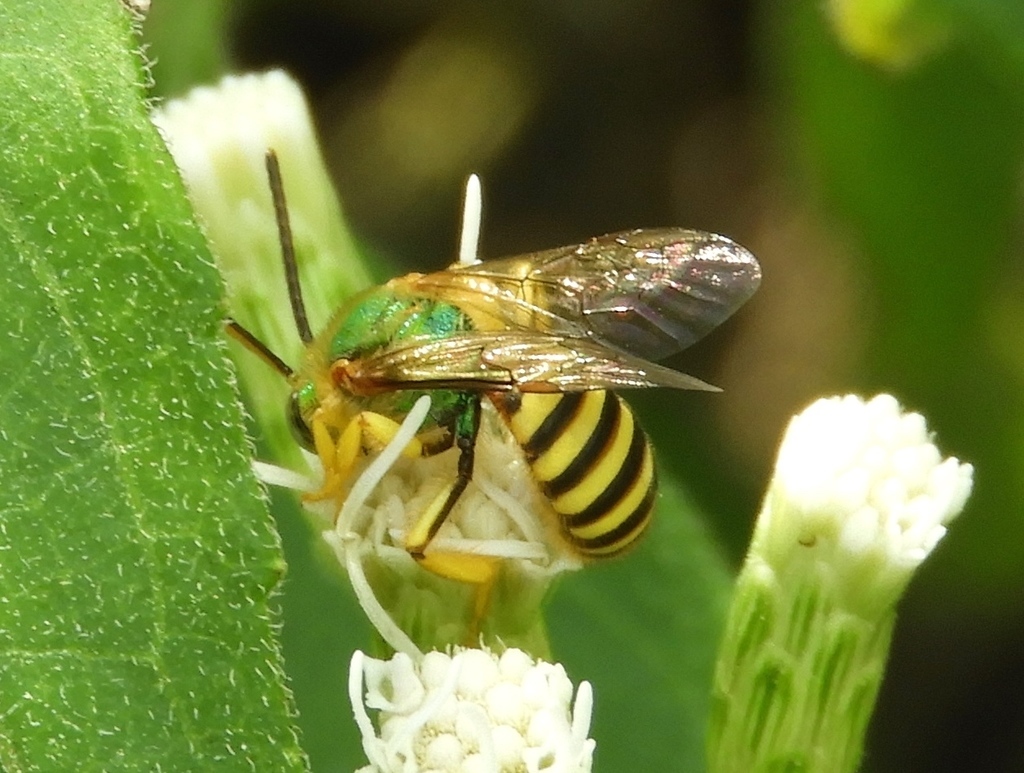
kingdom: Animalia
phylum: Arthropoda
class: Insecta
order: Hymenoptera
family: Halictidae
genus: Agapostemon
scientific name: Agapostemon nasutus
